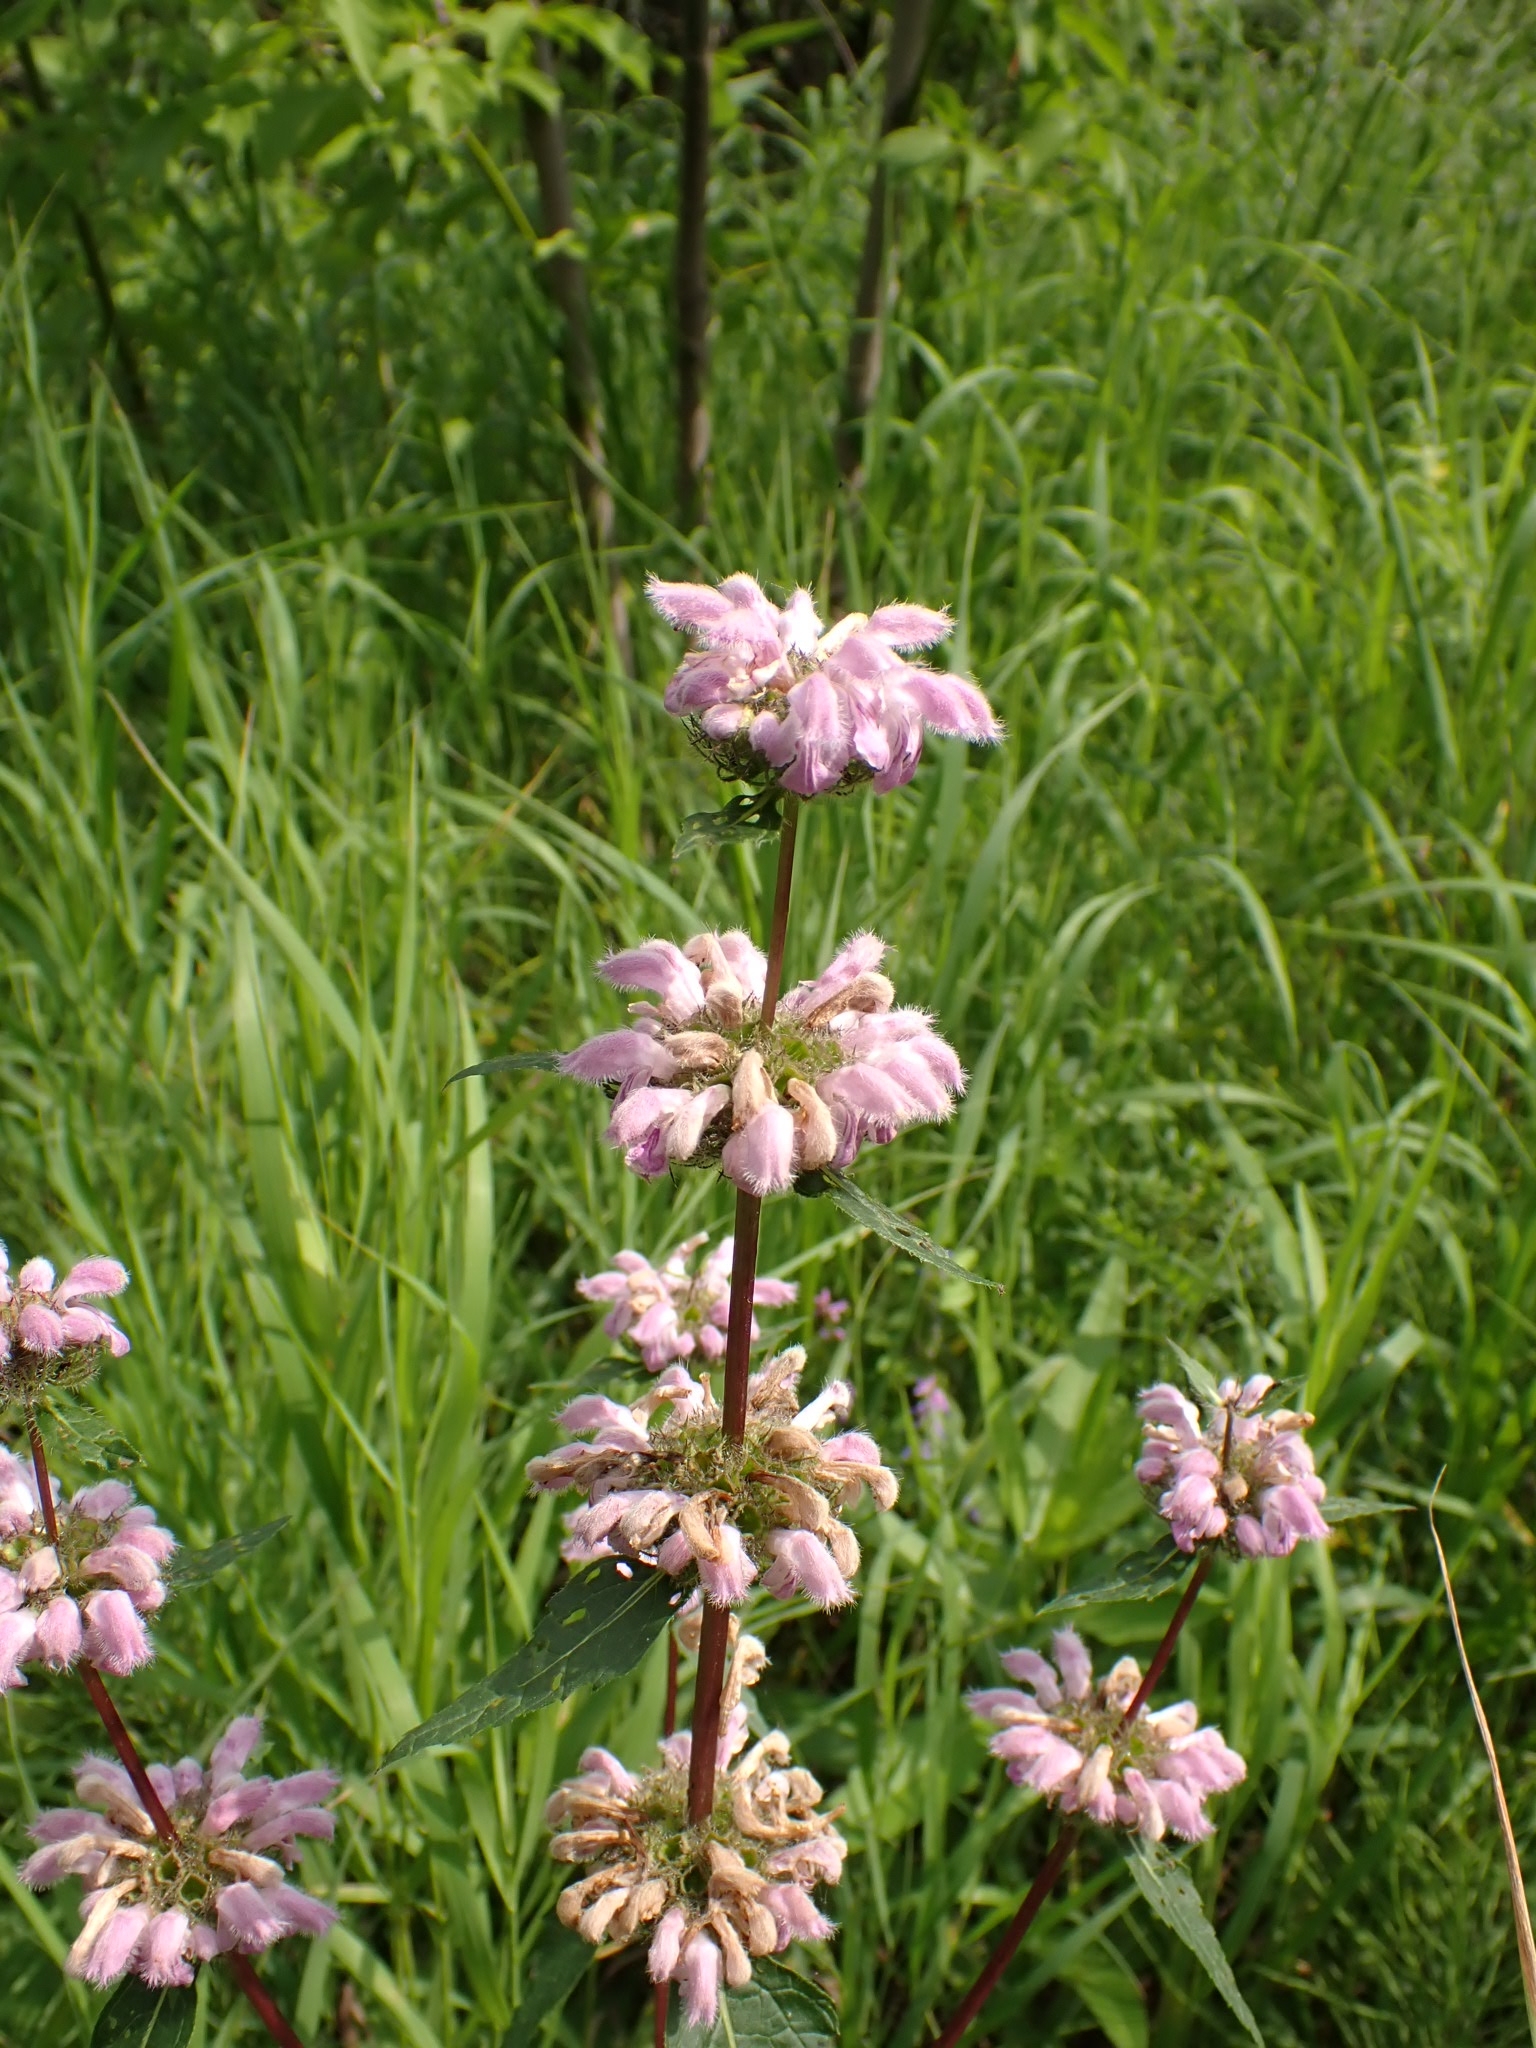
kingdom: Plantae
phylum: Tracheophyta
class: Magnoliopsida
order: Lamiales
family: Lamiaceae
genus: Phlomoides
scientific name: Phlomoides tuberosa
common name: Tuberous jerusalem sage
